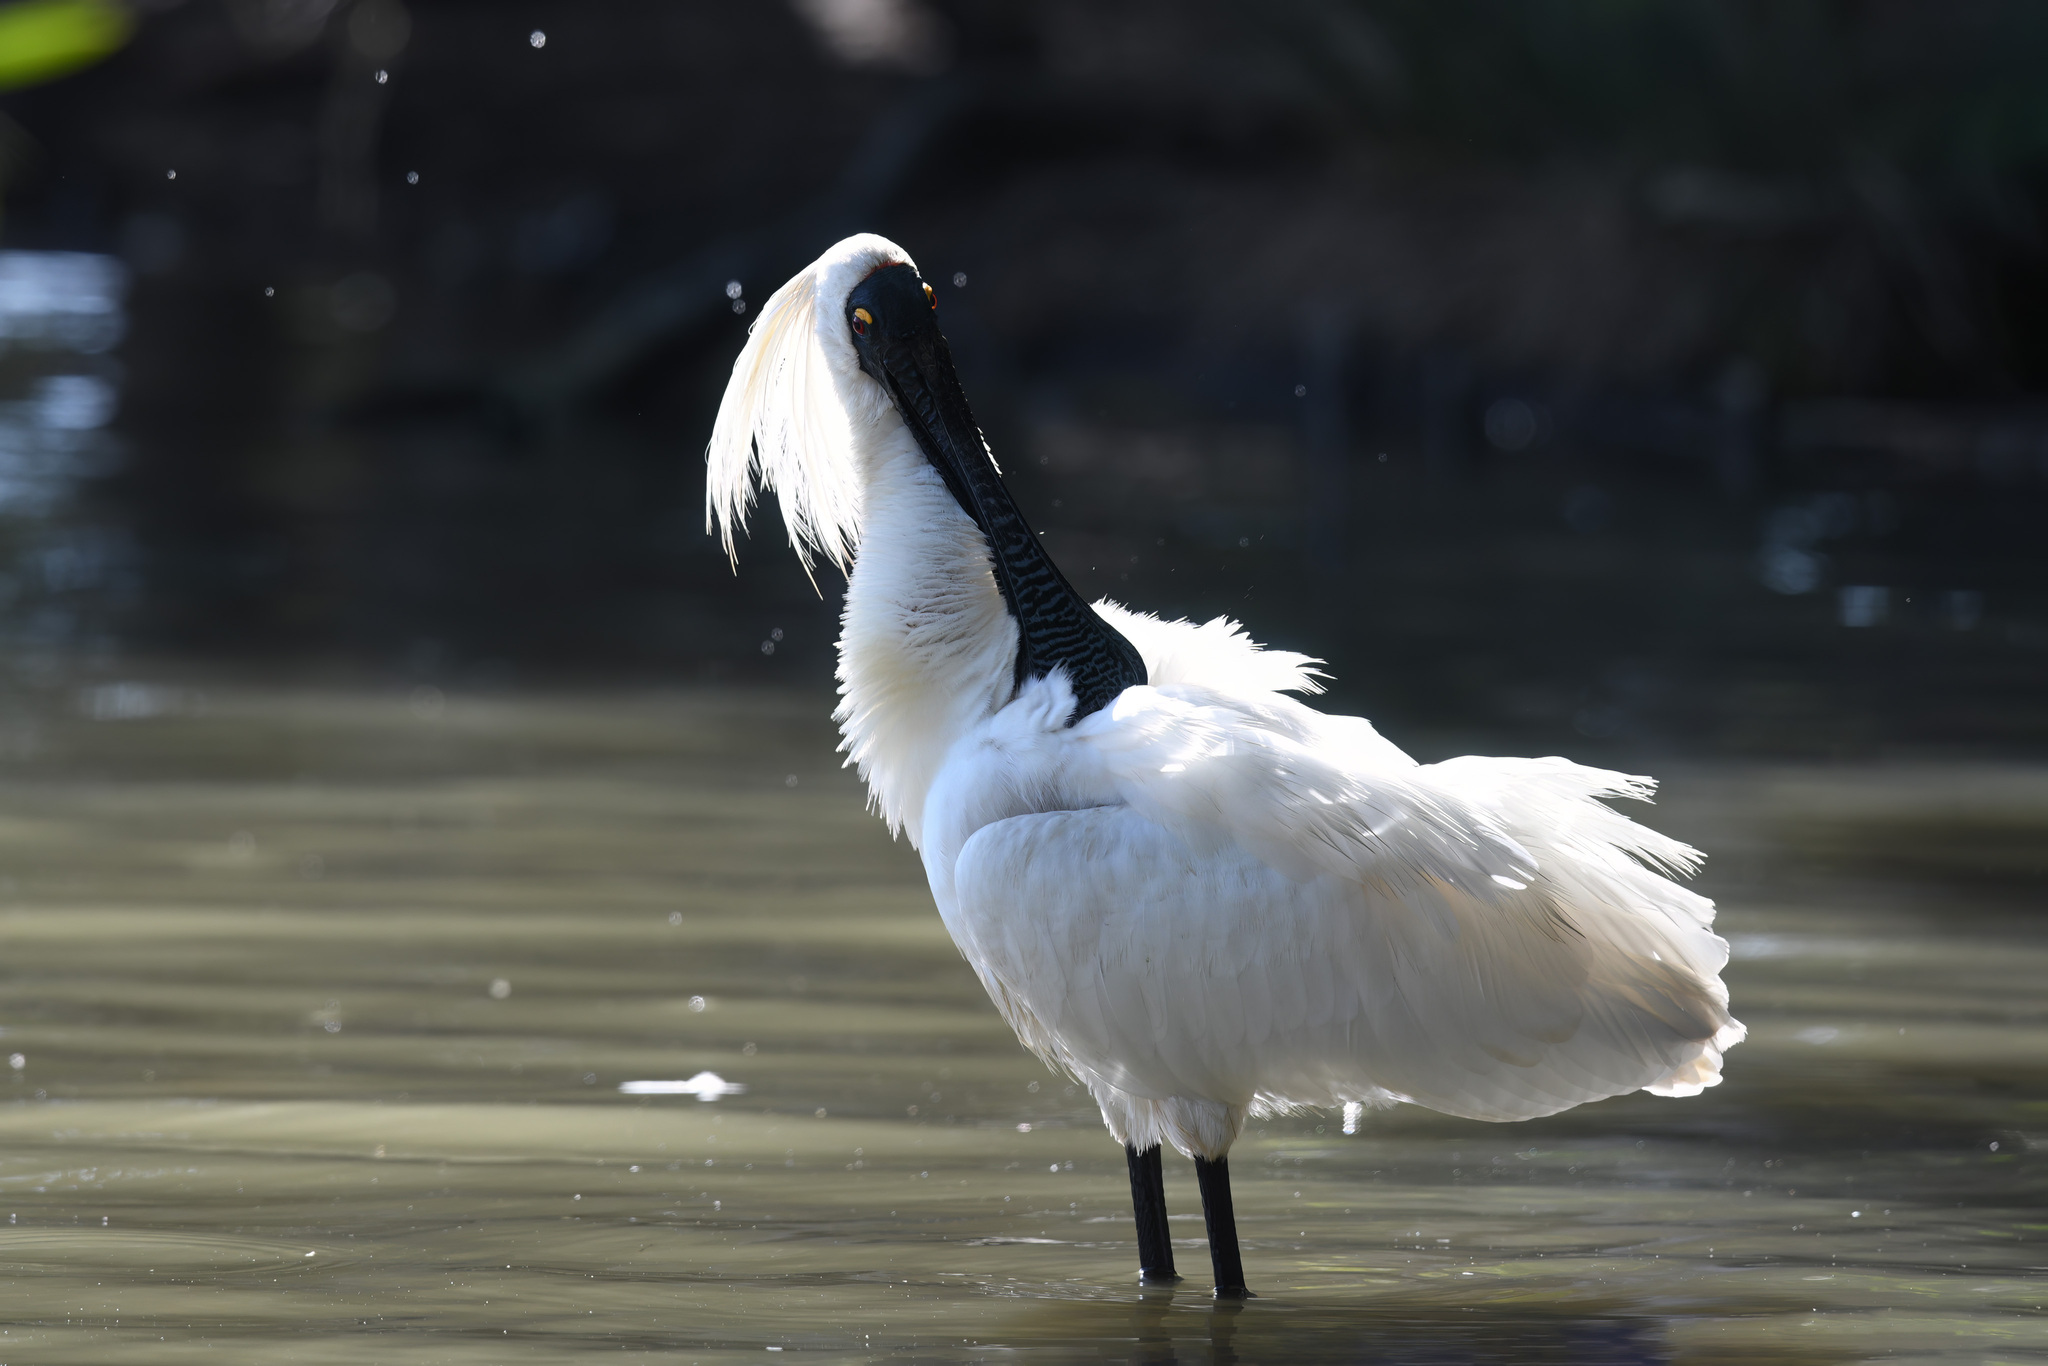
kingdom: Animalia
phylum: Chordata
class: Aves
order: Pelecaniformes
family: Threskiornithidae
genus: Platalea
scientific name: Platalea regia
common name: Royal spoonbill
